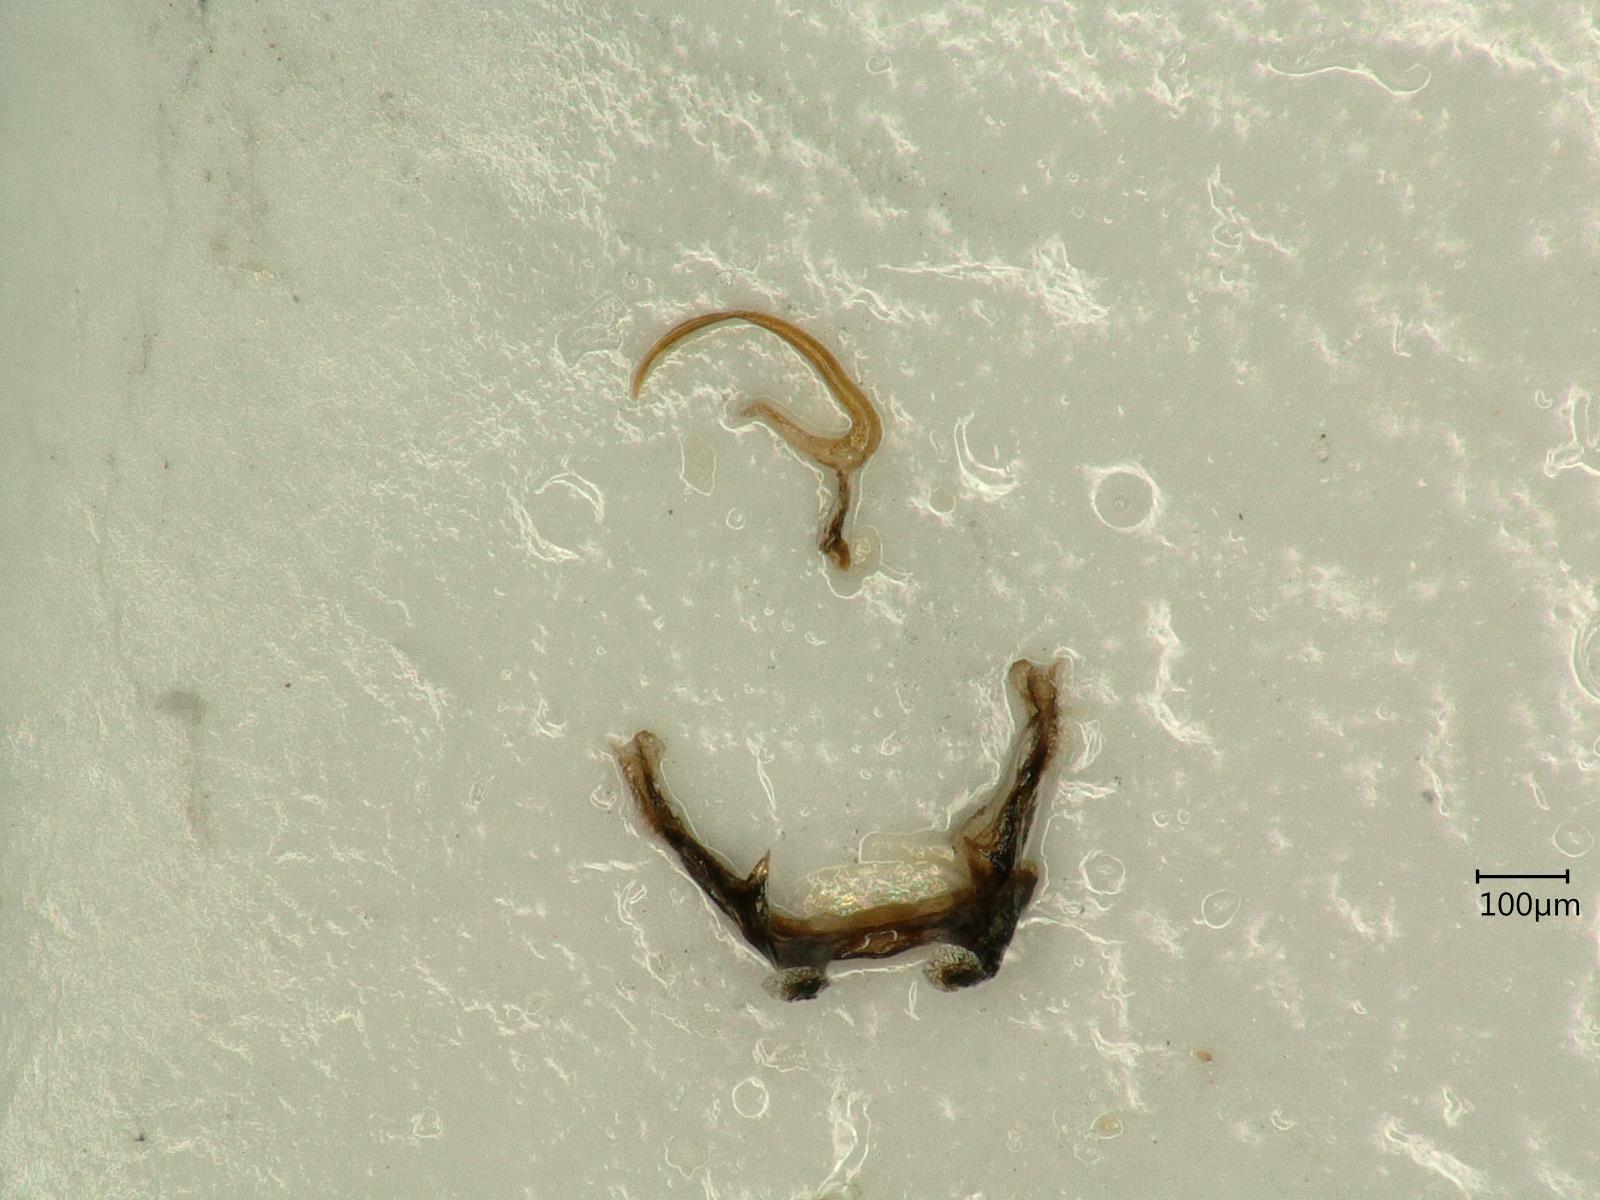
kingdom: Animalia
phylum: Arthropoda
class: Insecta
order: Hemiptera
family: Cicadellidae
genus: Macrosteles
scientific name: Macrosteles laevis
